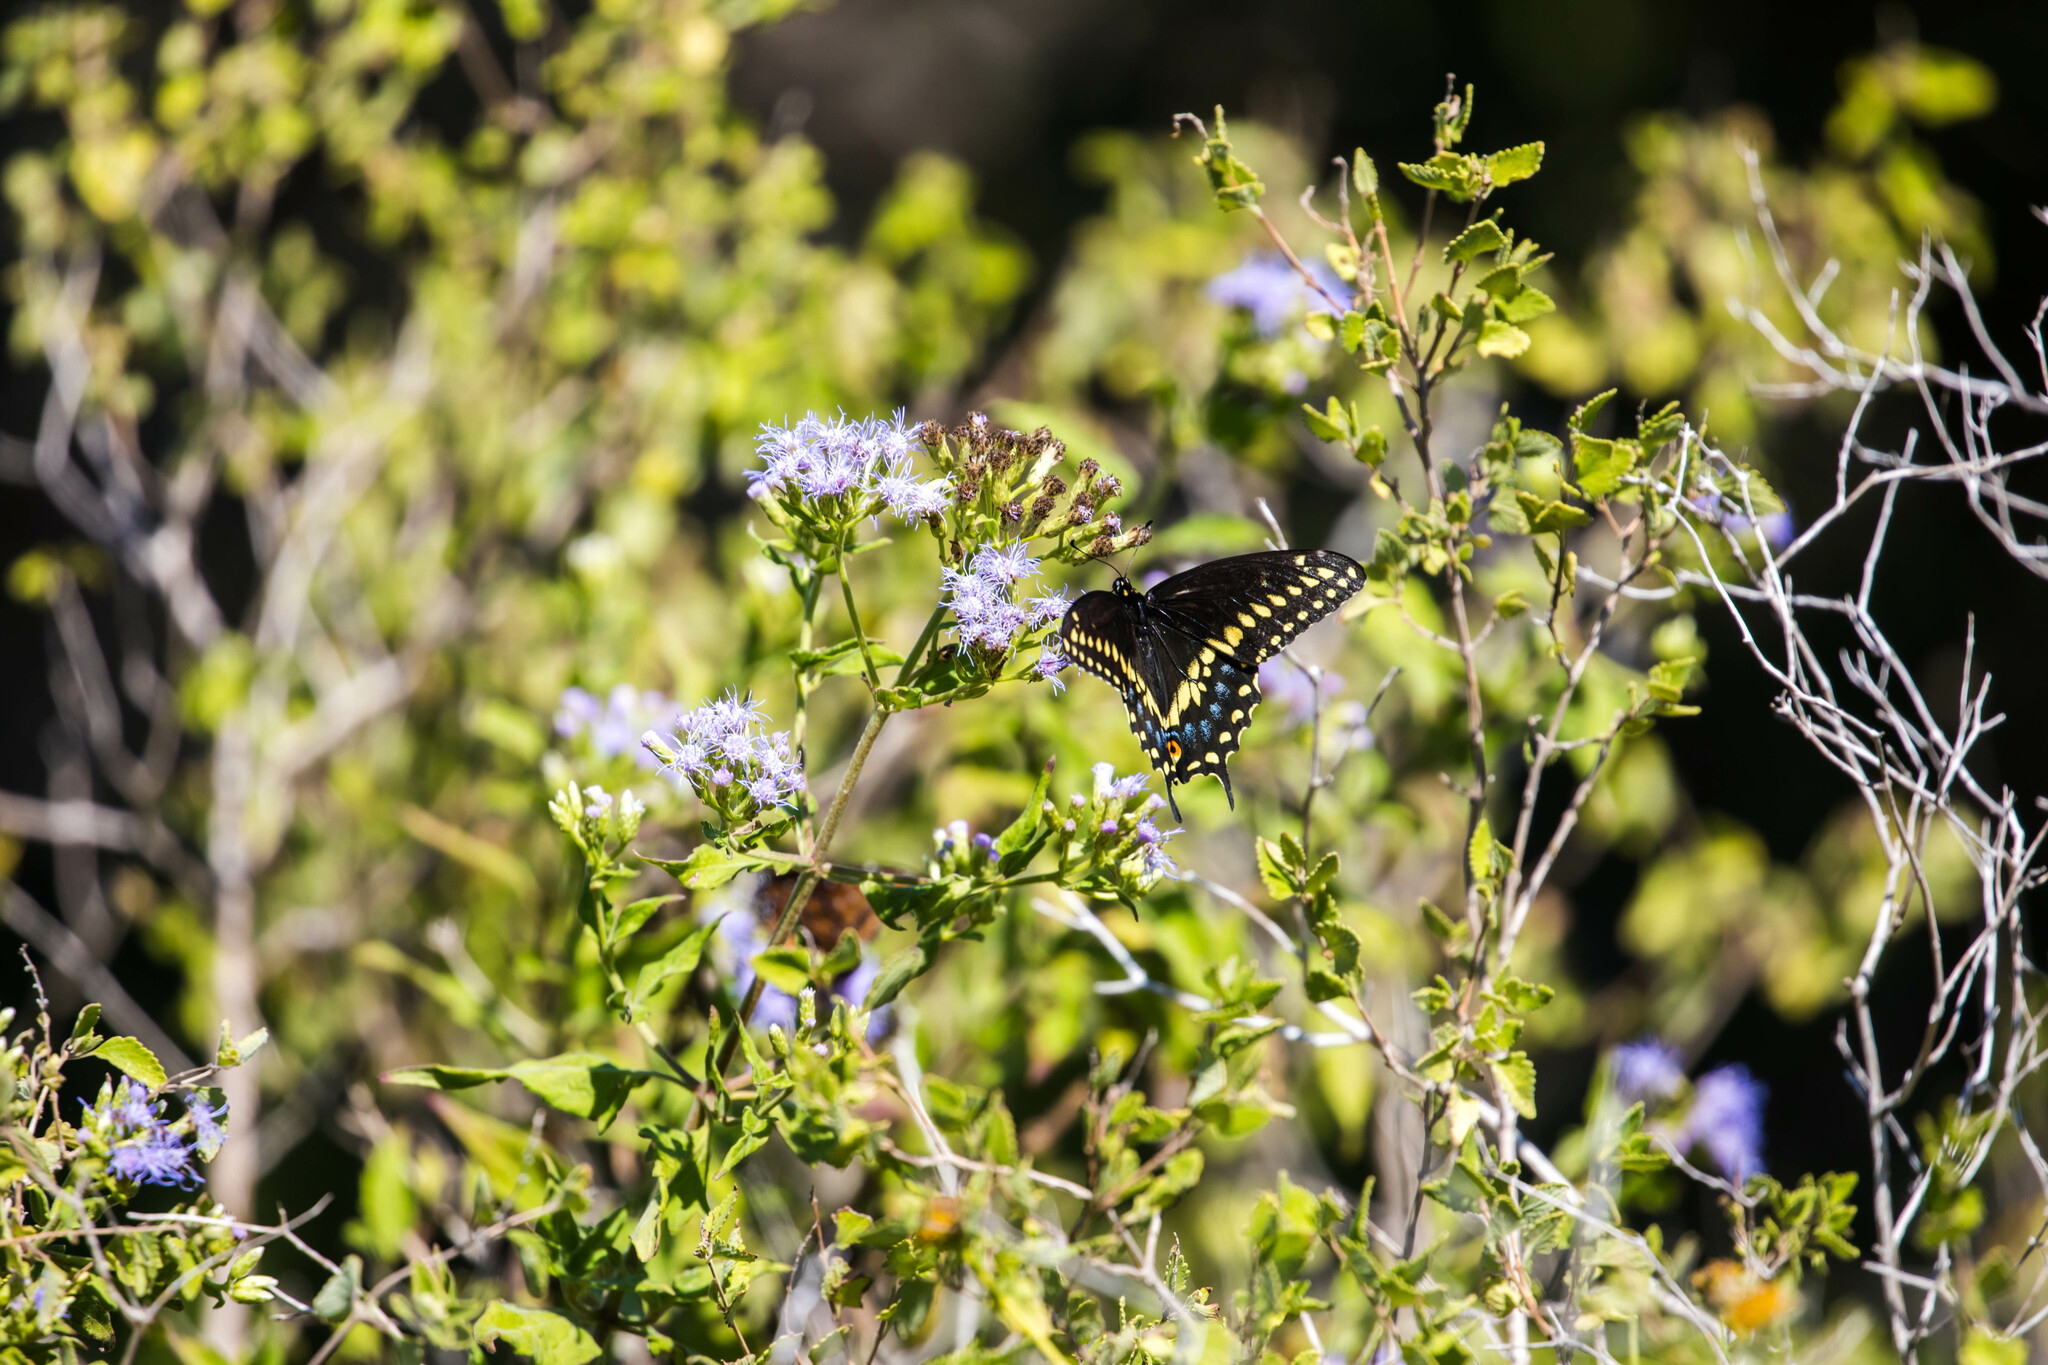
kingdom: Animalia
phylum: Arthropoda
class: Insecta
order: Lepidoptera
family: Papilionidae
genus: Papilio
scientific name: Papilio polyxenes
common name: Black swallowtail
